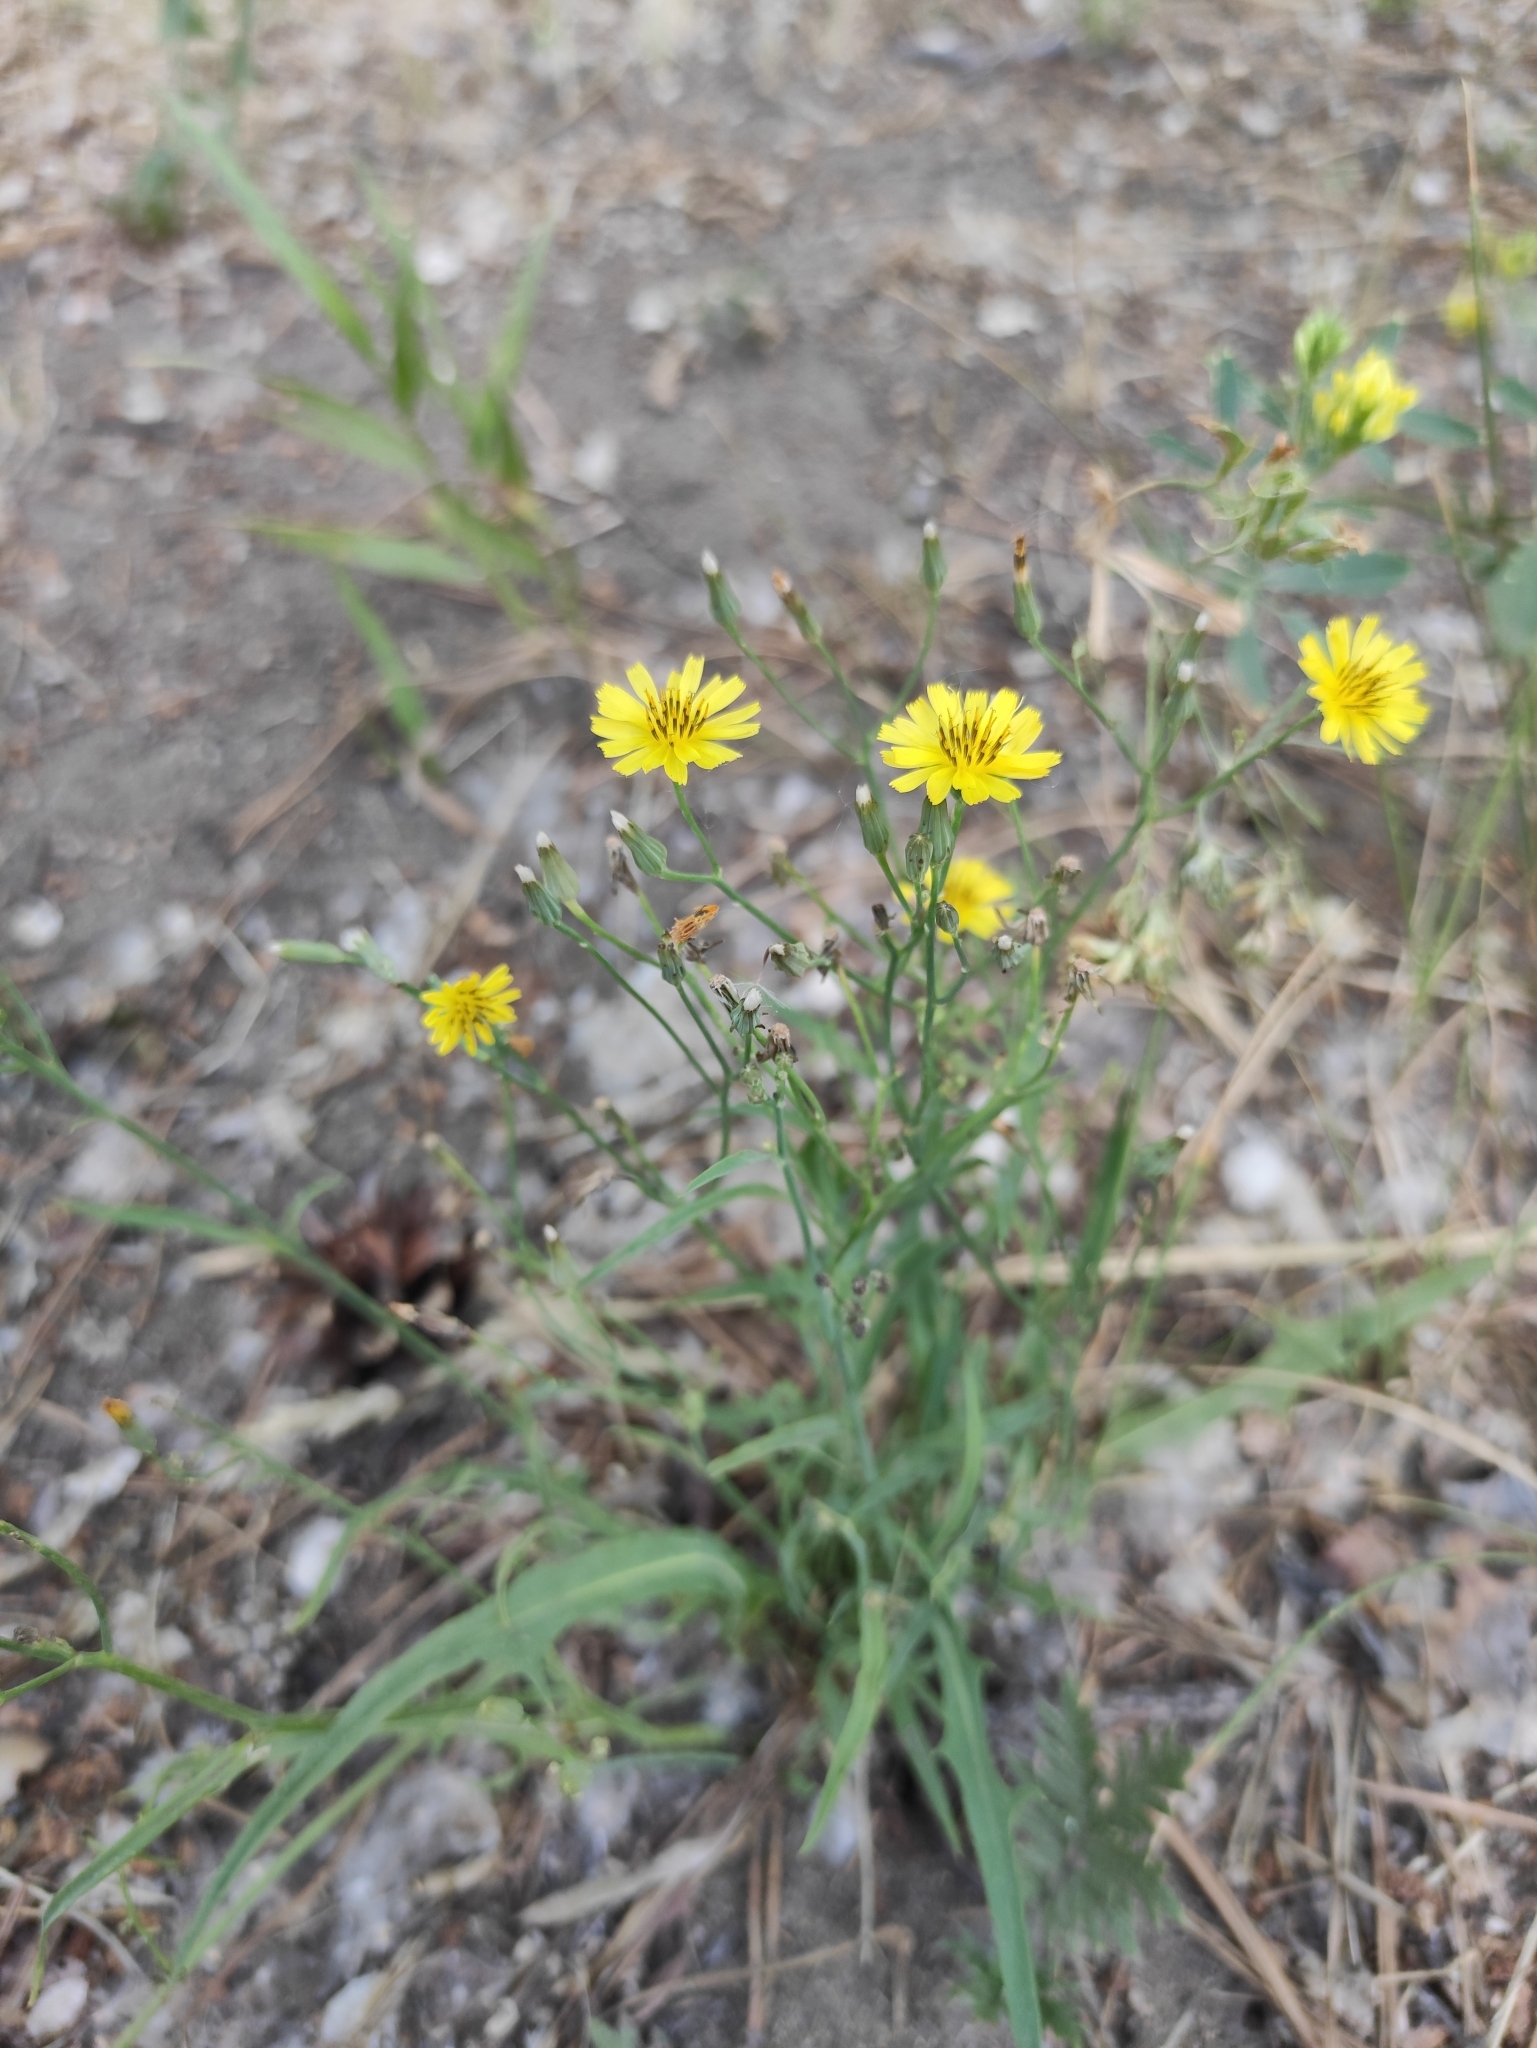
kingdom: Plantae
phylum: Tracheophyta
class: Magnoliopsida
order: Asterales
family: Asteraceae
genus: Ixeris
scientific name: Ixeris chinensis
